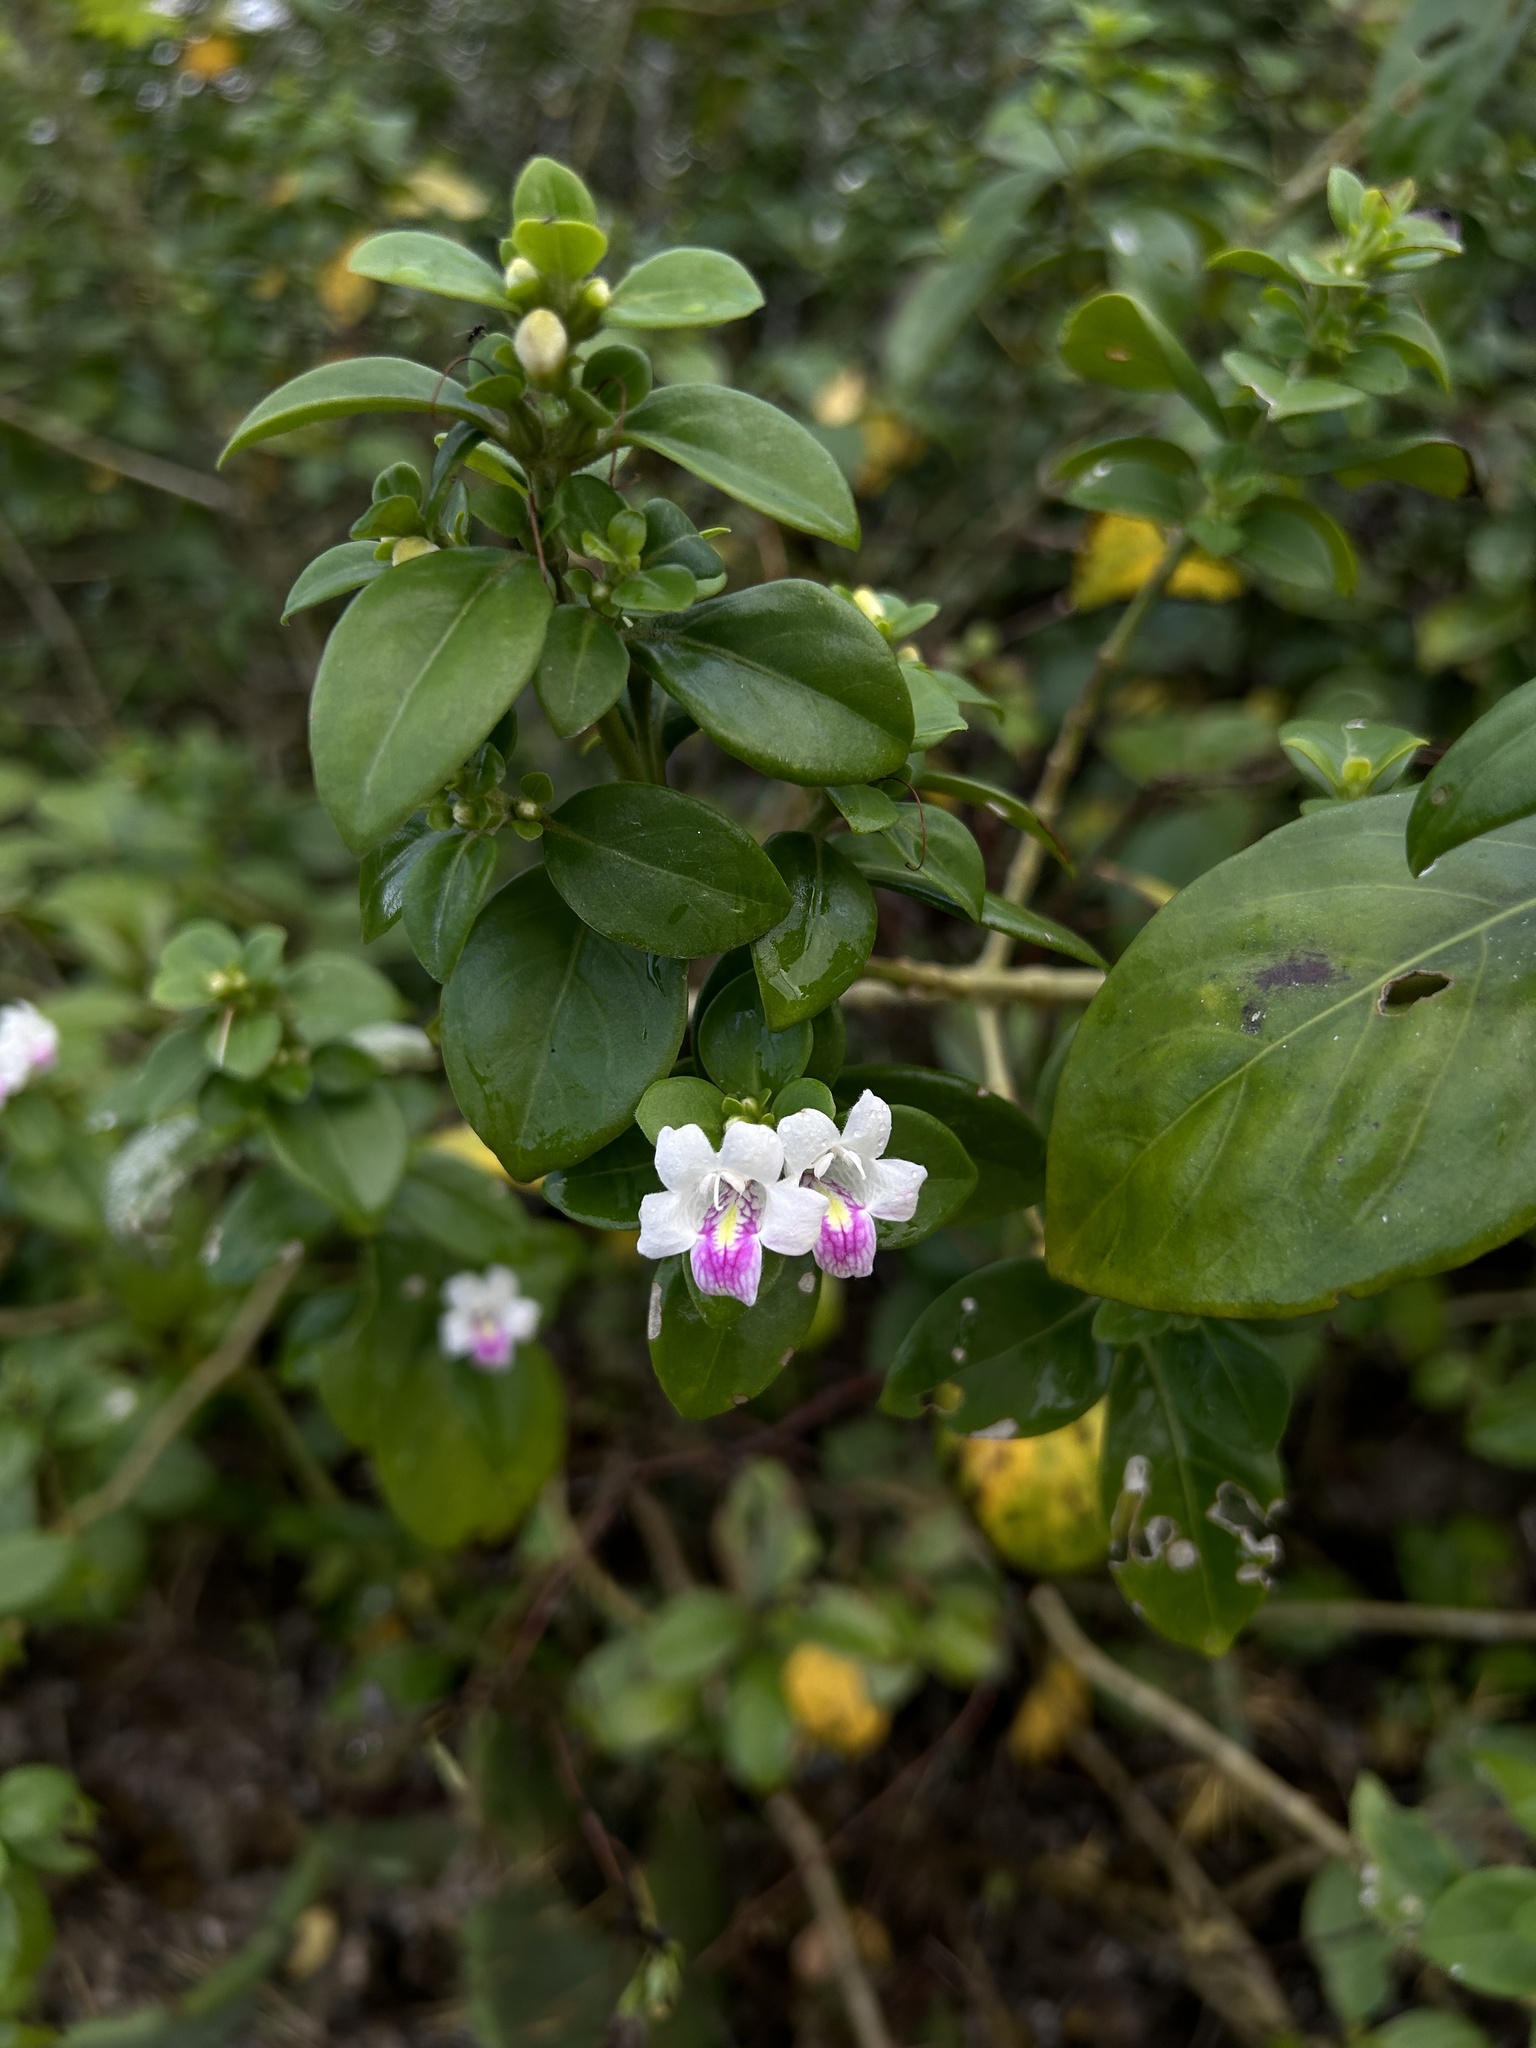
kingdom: Plantae
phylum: Tracheophyta
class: Magnoliopsida
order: Lamiales
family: Acanthaceae
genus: Bravaisia
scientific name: Bravaisia berlandieriana
